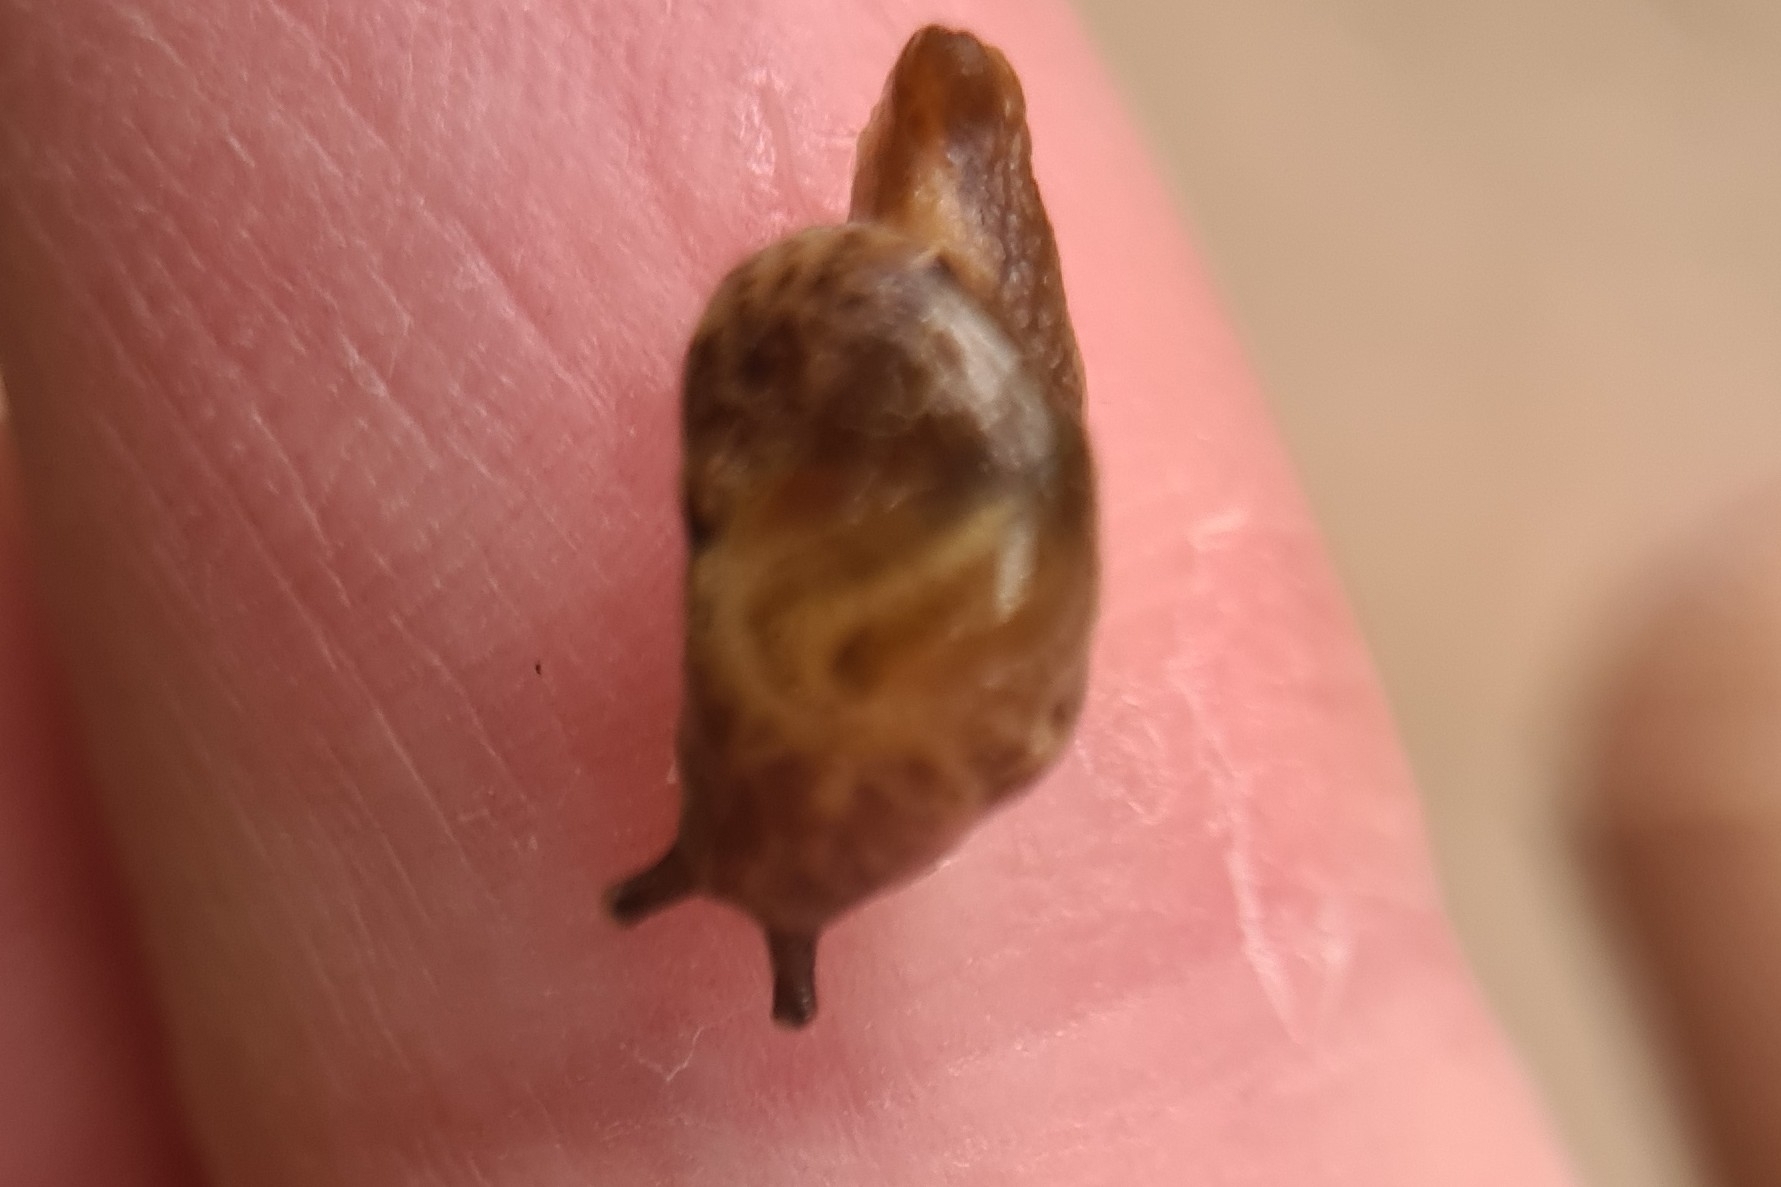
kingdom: Animalia
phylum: Mollusca
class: Gastropoda
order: Stylommatophora
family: Helicarionidae
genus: Ubiquitarion
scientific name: Ubiquitarion iridis
